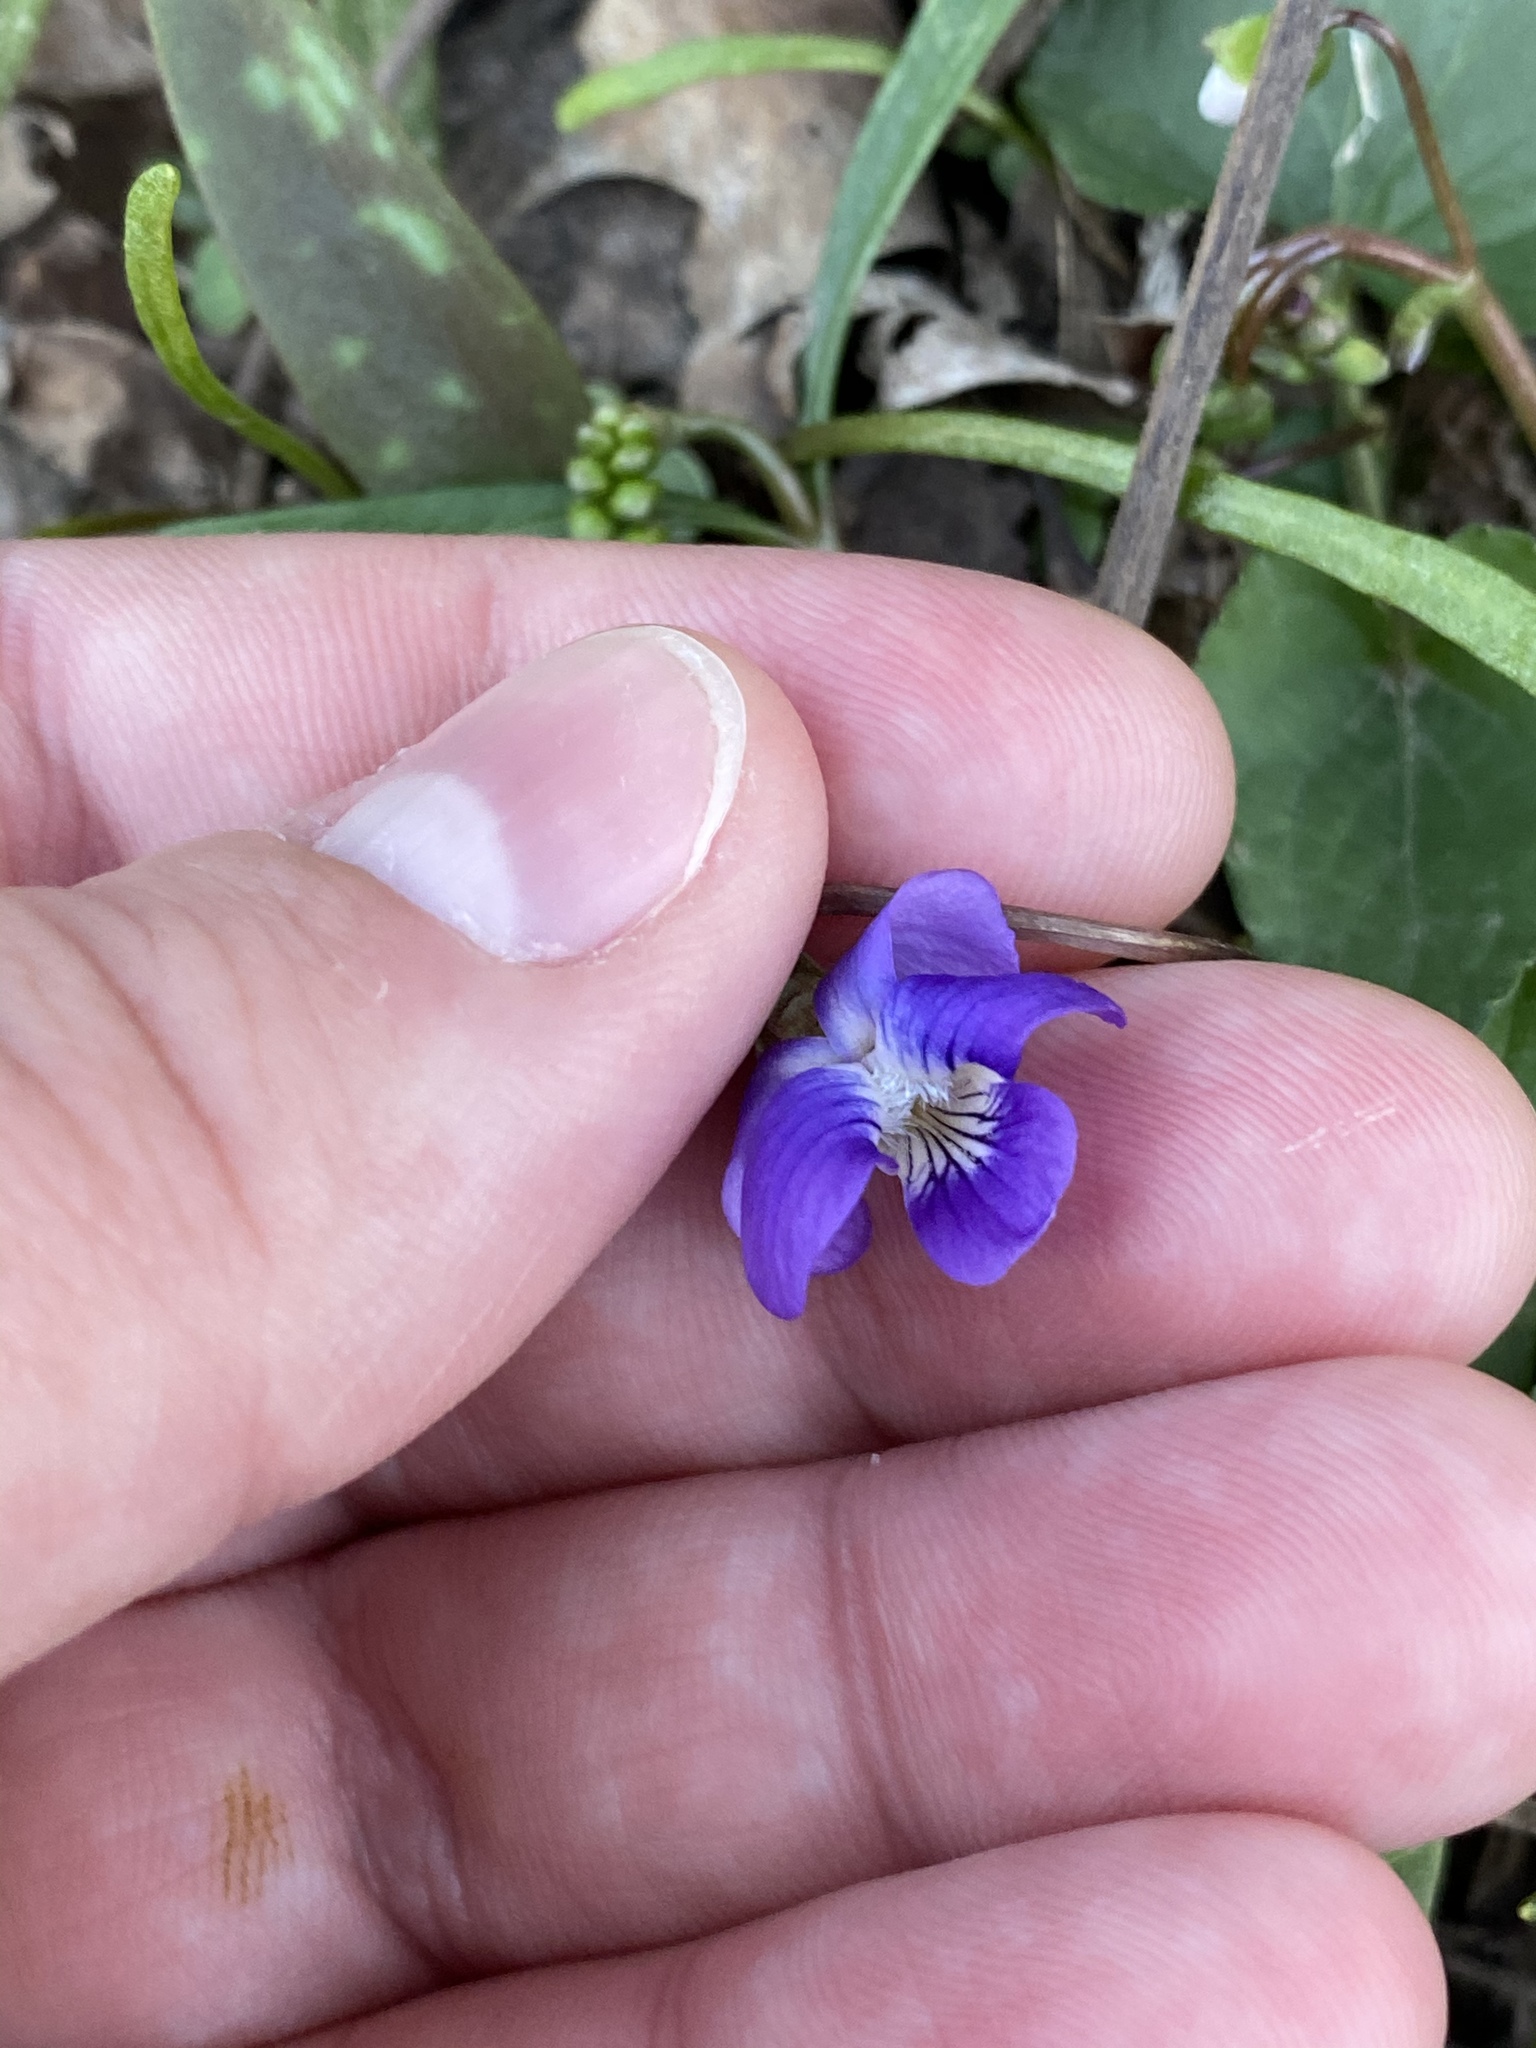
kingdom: Plantae
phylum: Tracheophyta
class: Magnoliopsida
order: Malpighiales
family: Violaceae
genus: Viola
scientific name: Viola sororia
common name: Dooryard violet
